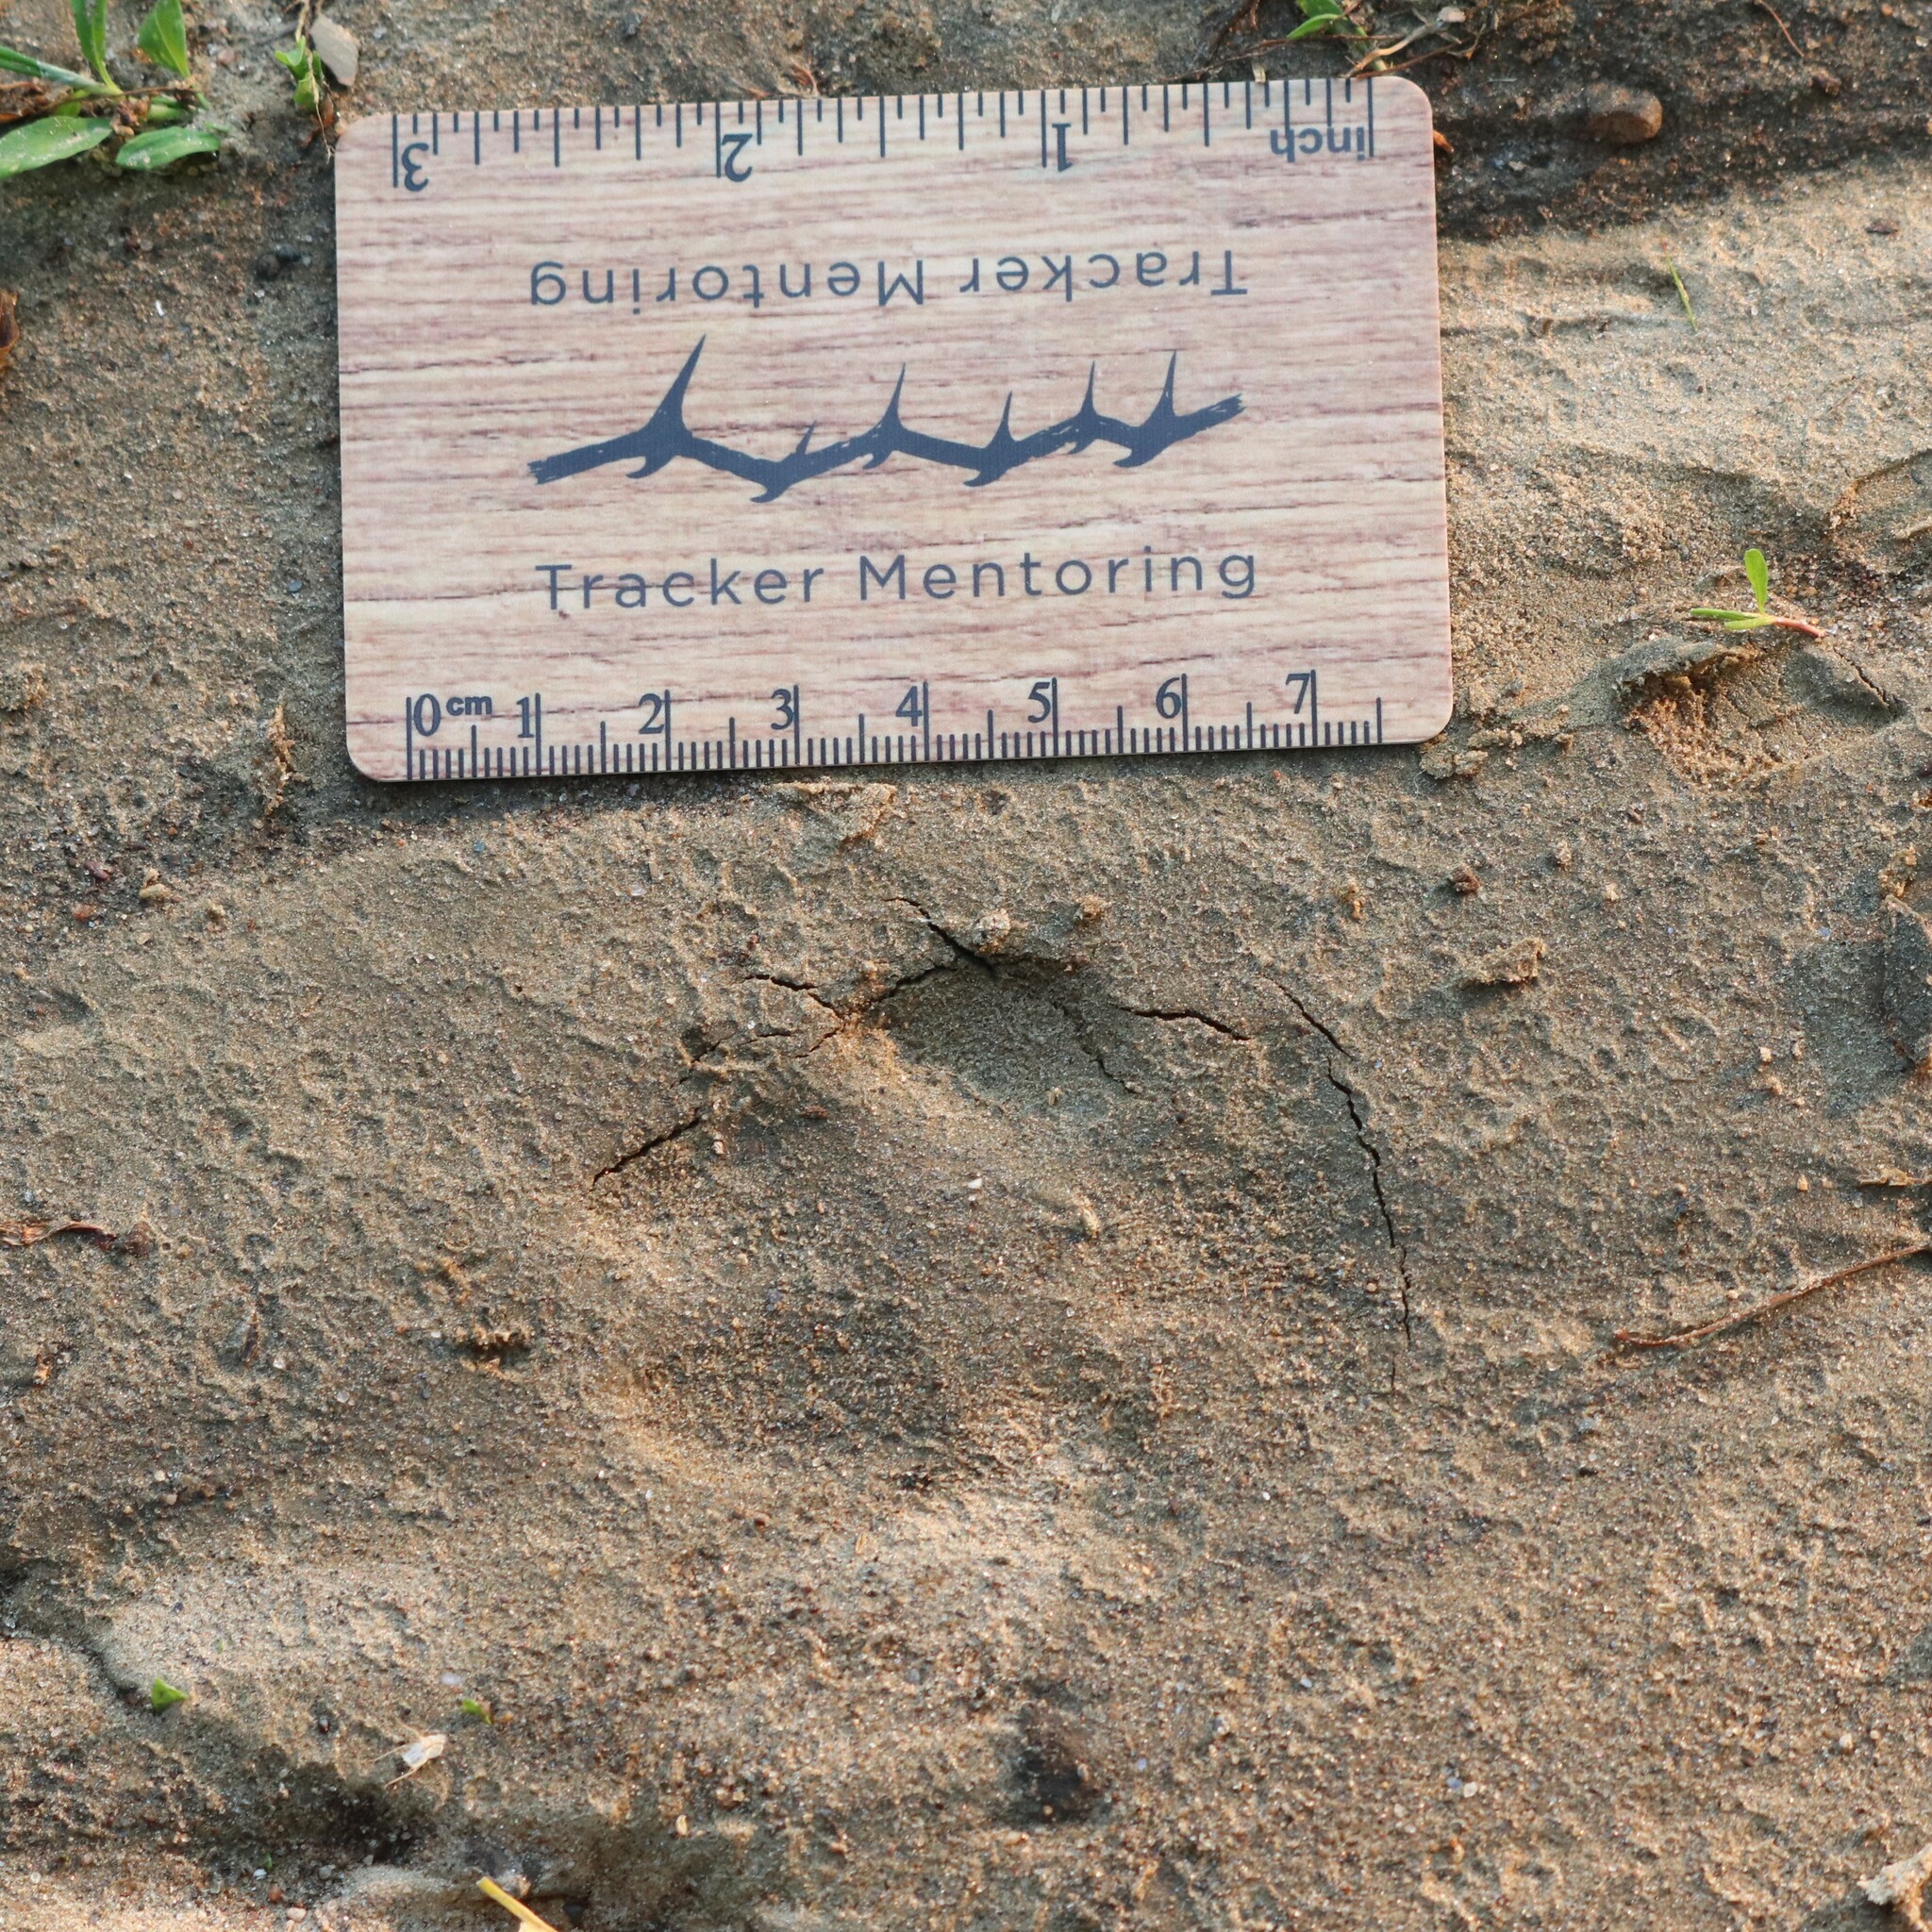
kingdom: Animalia
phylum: Chordata
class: Mammalia
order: Carnivora
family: Canidae
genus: Canis
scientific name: Canis latrans
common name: Coyote
